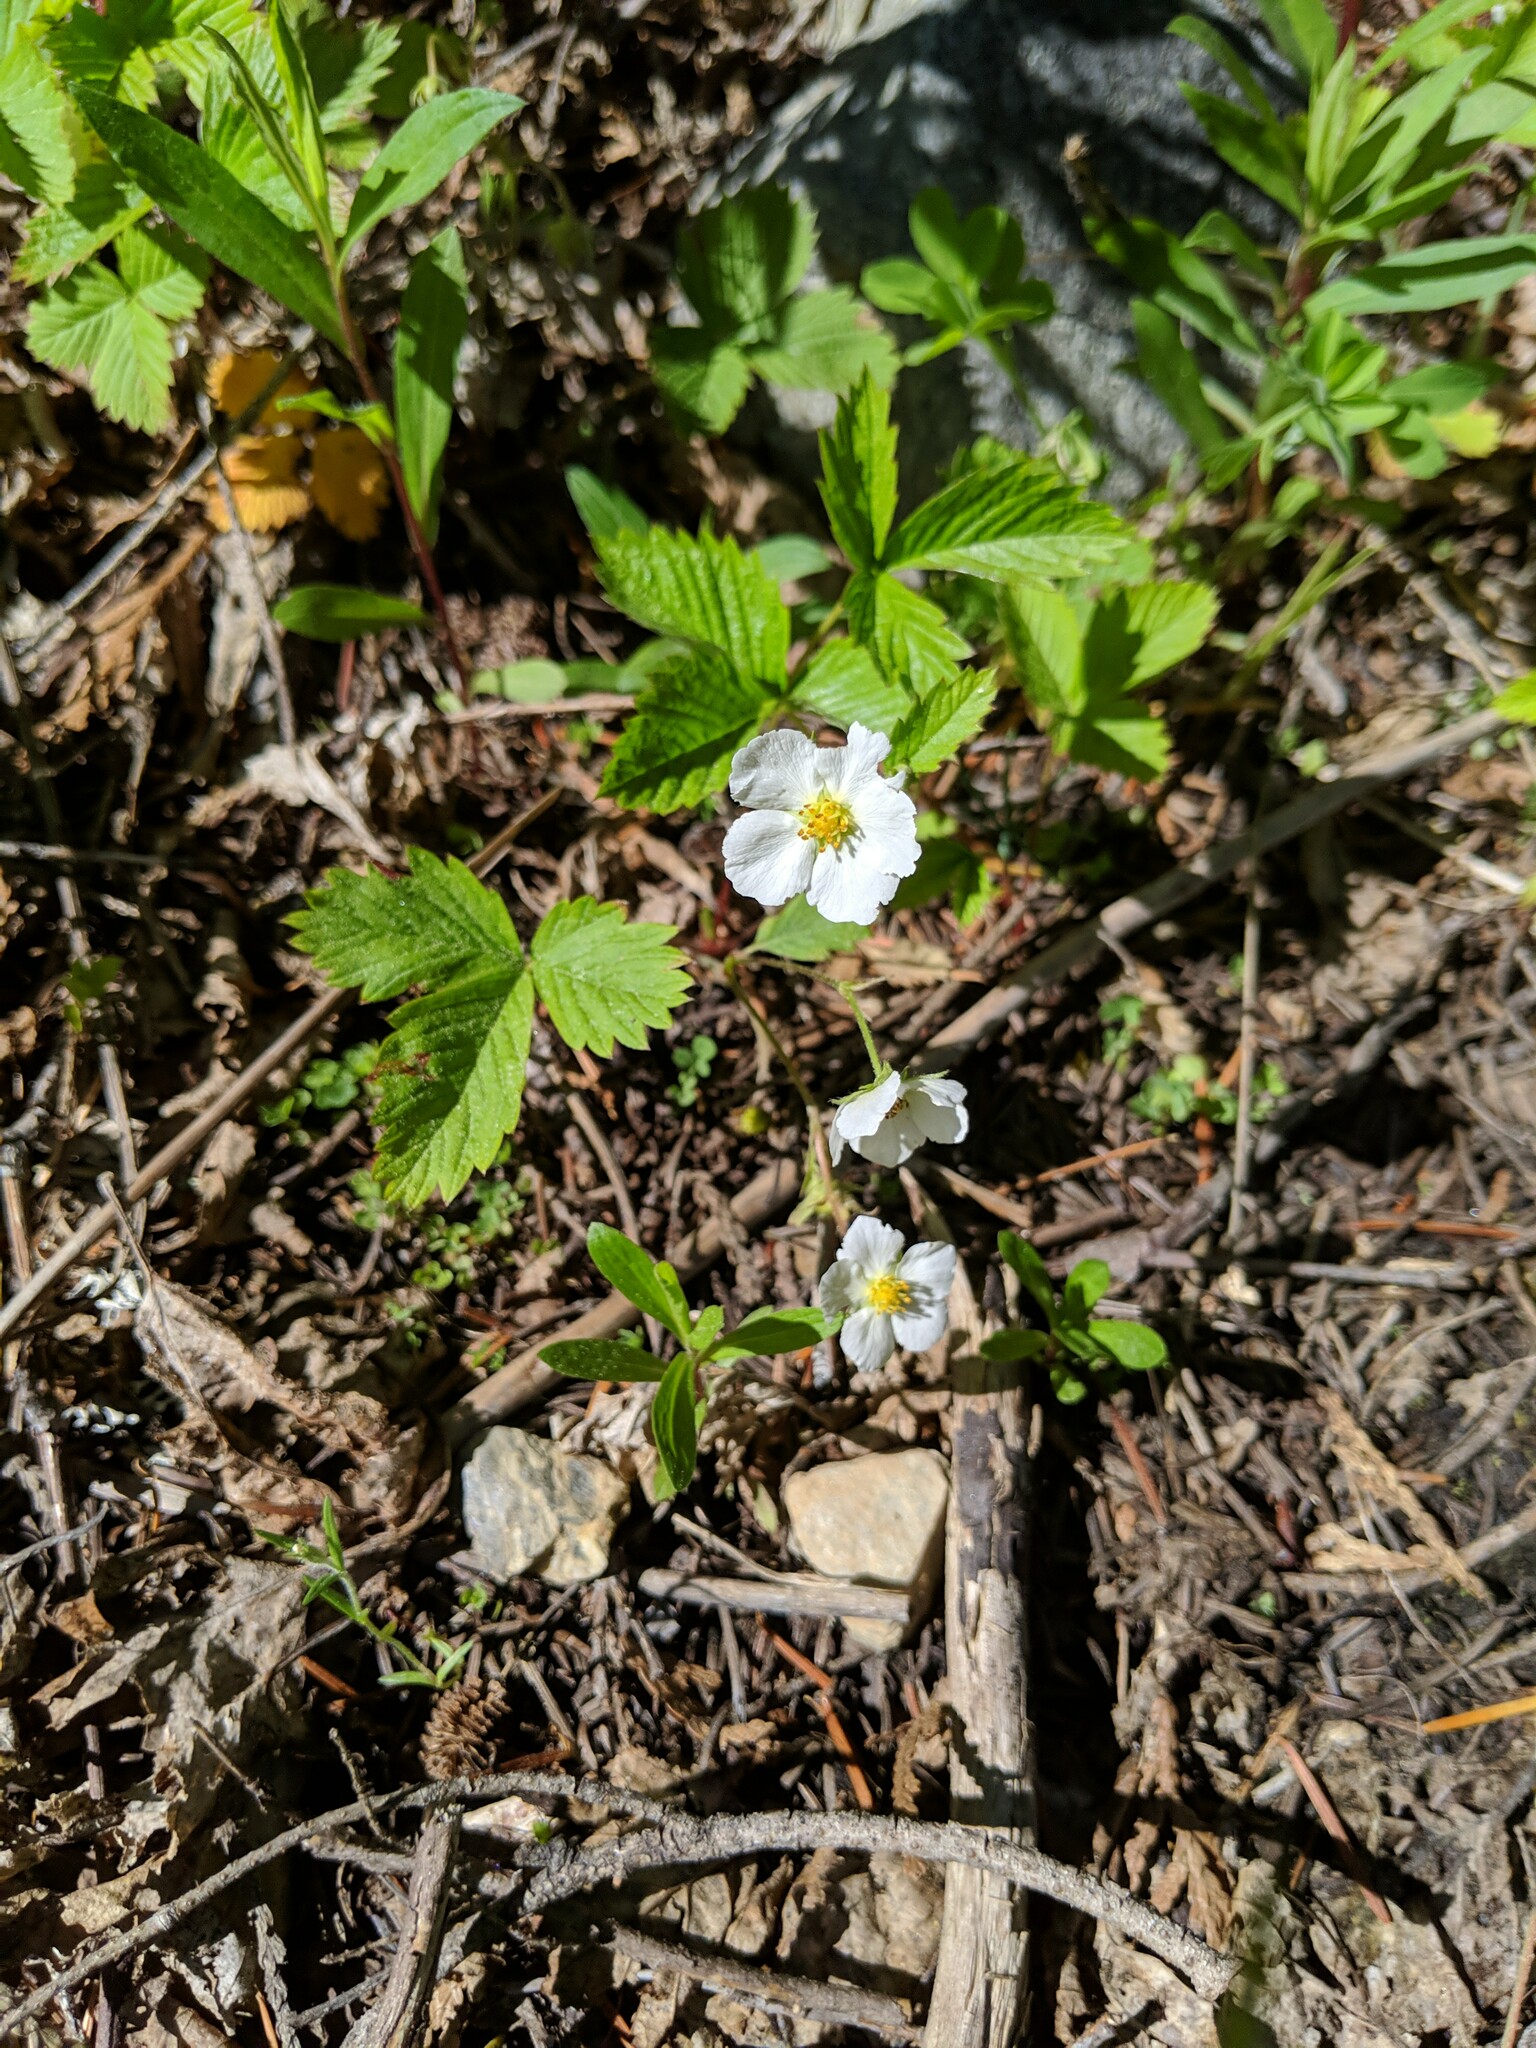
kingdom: Plantae
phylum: Tracheophyta
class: Magnoliopsida
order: Rosales
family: Rosaceae
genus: Fragaria
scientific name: Fragaria vesca
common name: Wild strawberry
